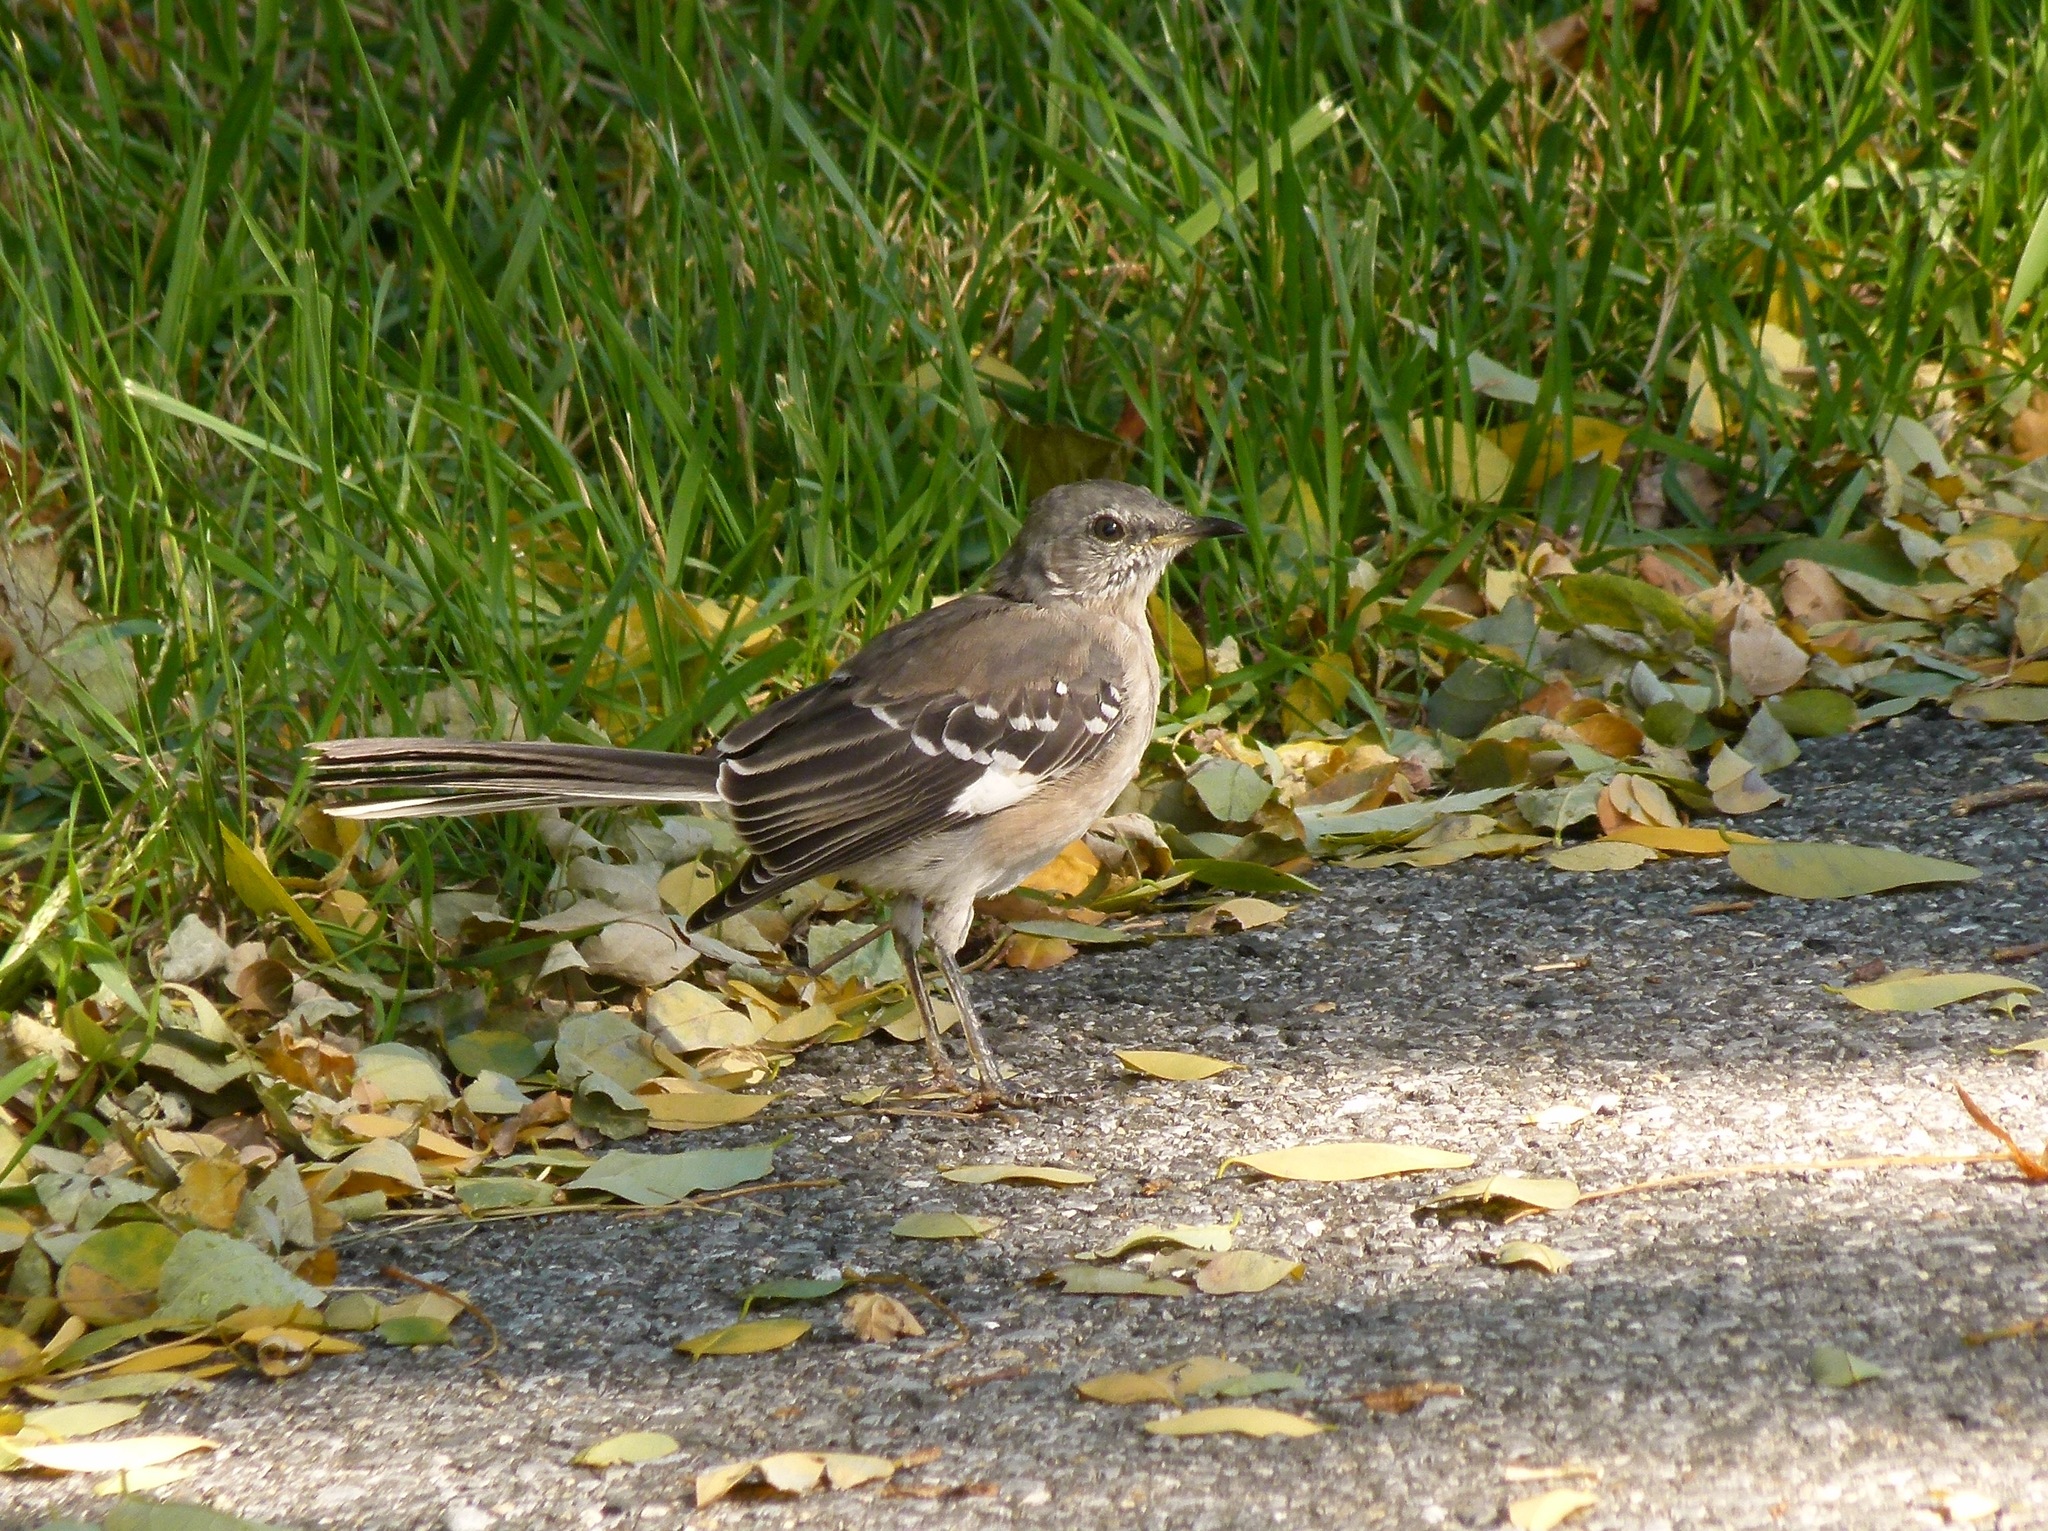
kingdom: Animalia
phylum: Chordata
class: Aves
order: Passeriformes
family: Mimidae
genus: Mimus
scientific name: Mimus polyglottos
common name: Northern mockingbird
